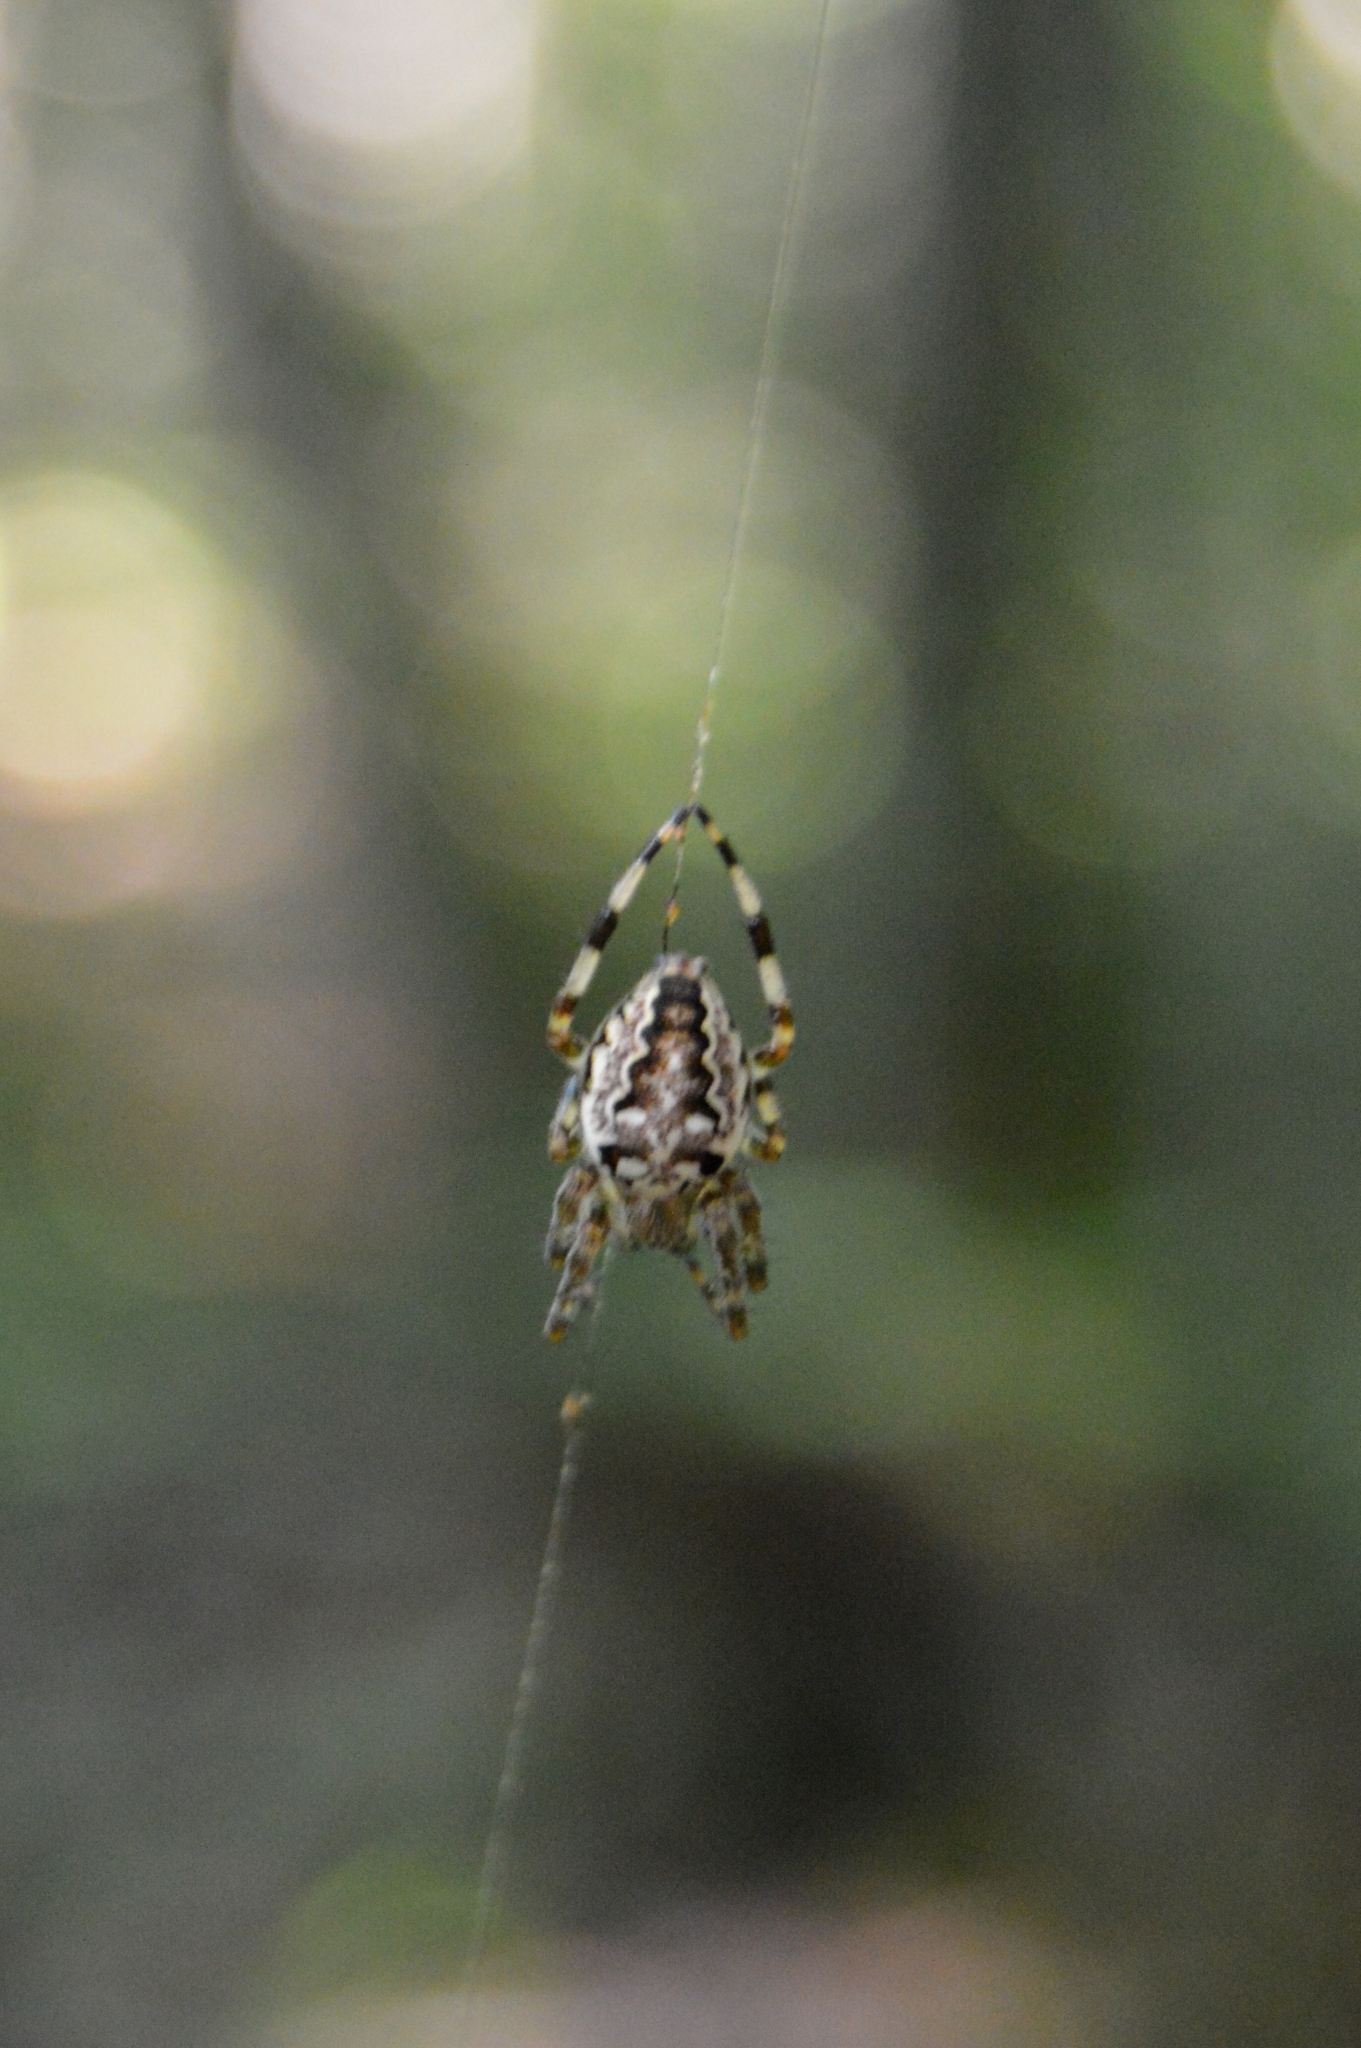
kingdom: Animalia
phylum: Arthropoda
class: Arachnida
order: Araneae
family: Araneidae
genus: Araneus
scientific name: Araneus marmoreus
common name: Marbled orbweaver
